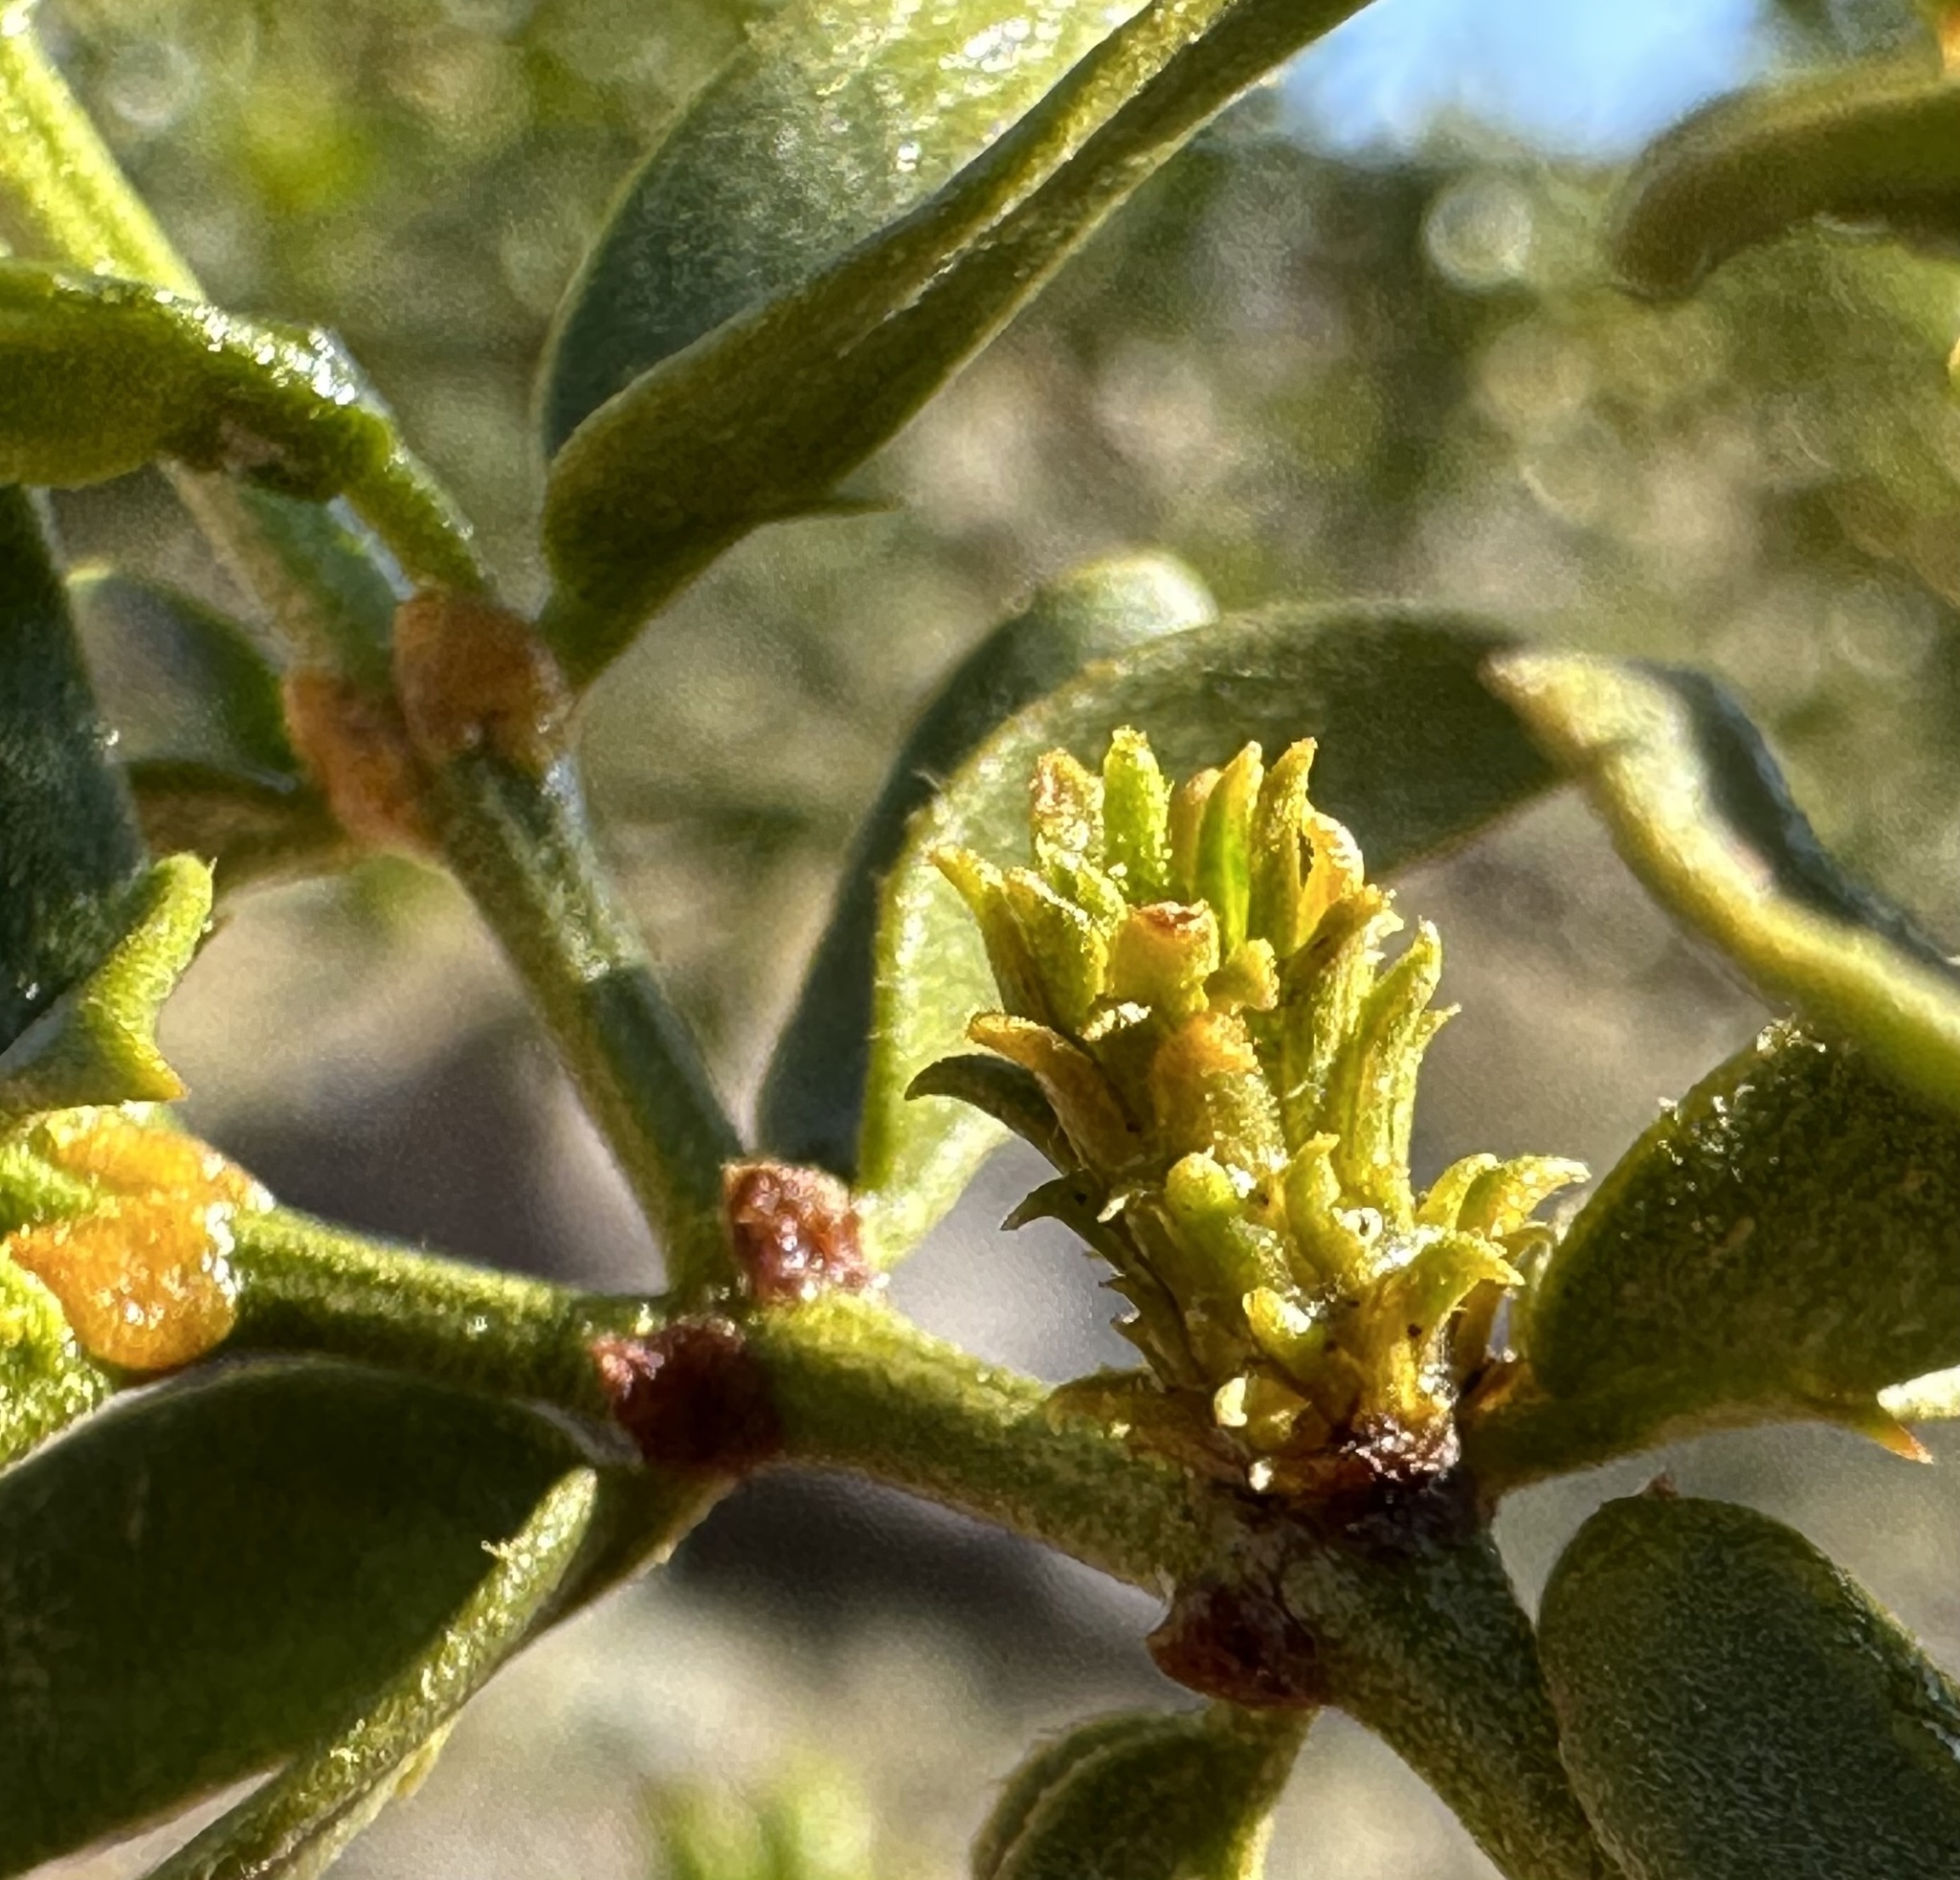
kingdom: Animalia
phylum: Arthropoda
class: Insecta
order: Diptera
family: Cecidomyiidae
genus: Asphondylia
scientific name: Asphondylia rosetta
